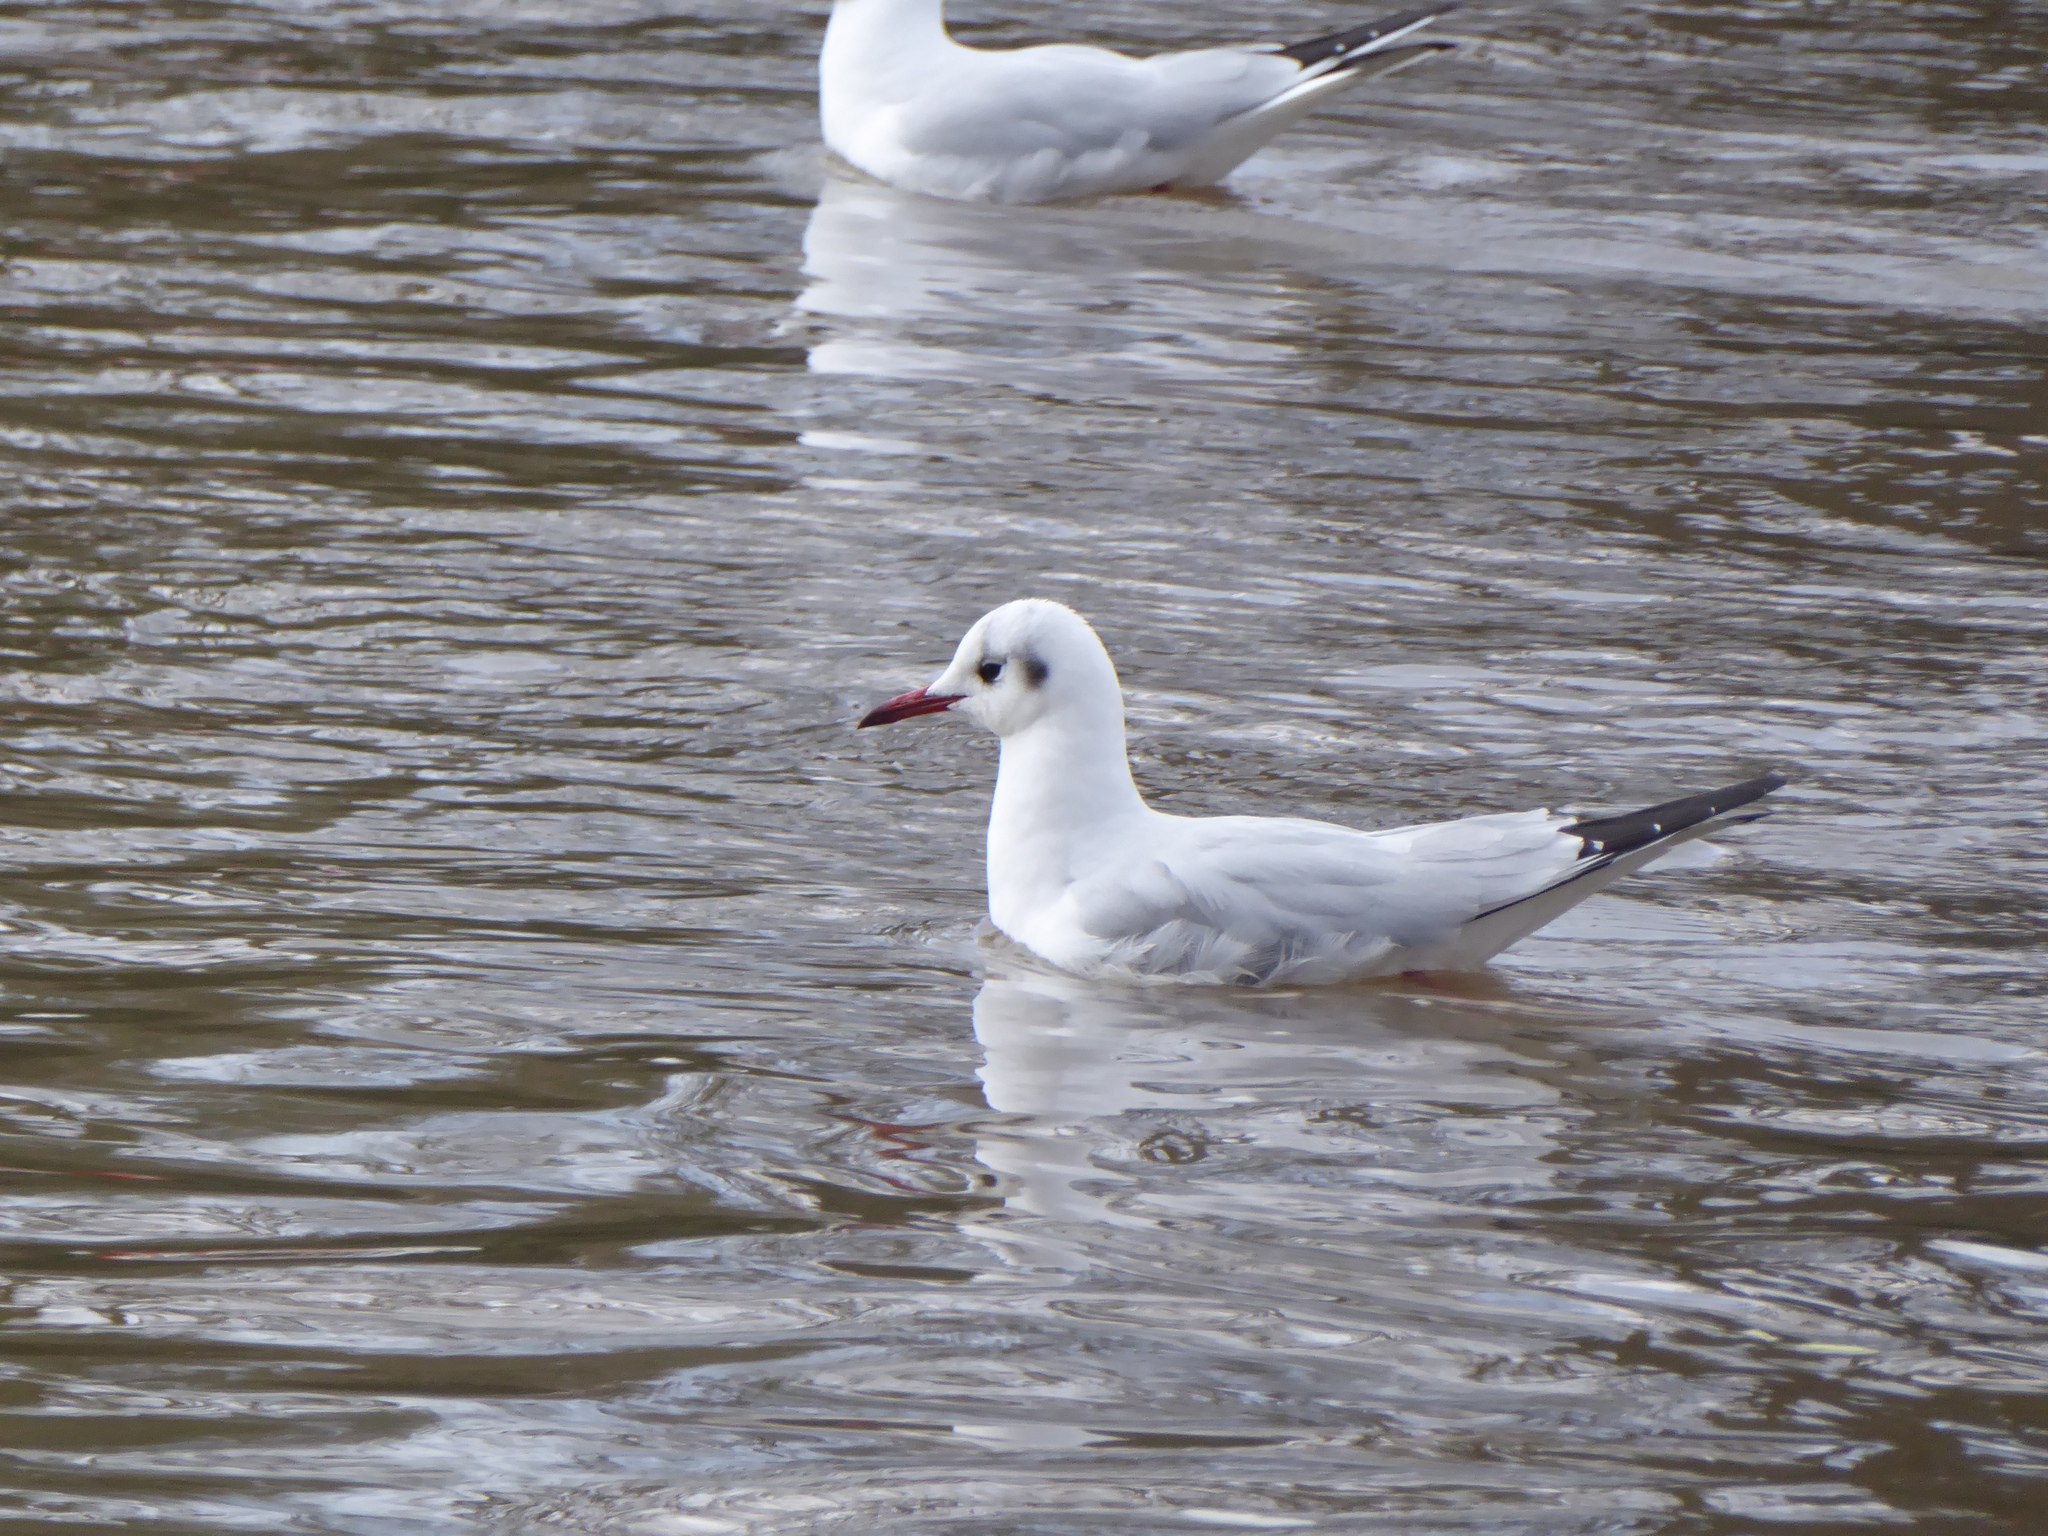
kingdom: Animalia
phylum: Chordata
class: Aves
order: Charadriiformes
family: Laridae
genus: Chroicocephalus
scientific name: Chroicocephalus ridibundus
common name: Black-headed gull
